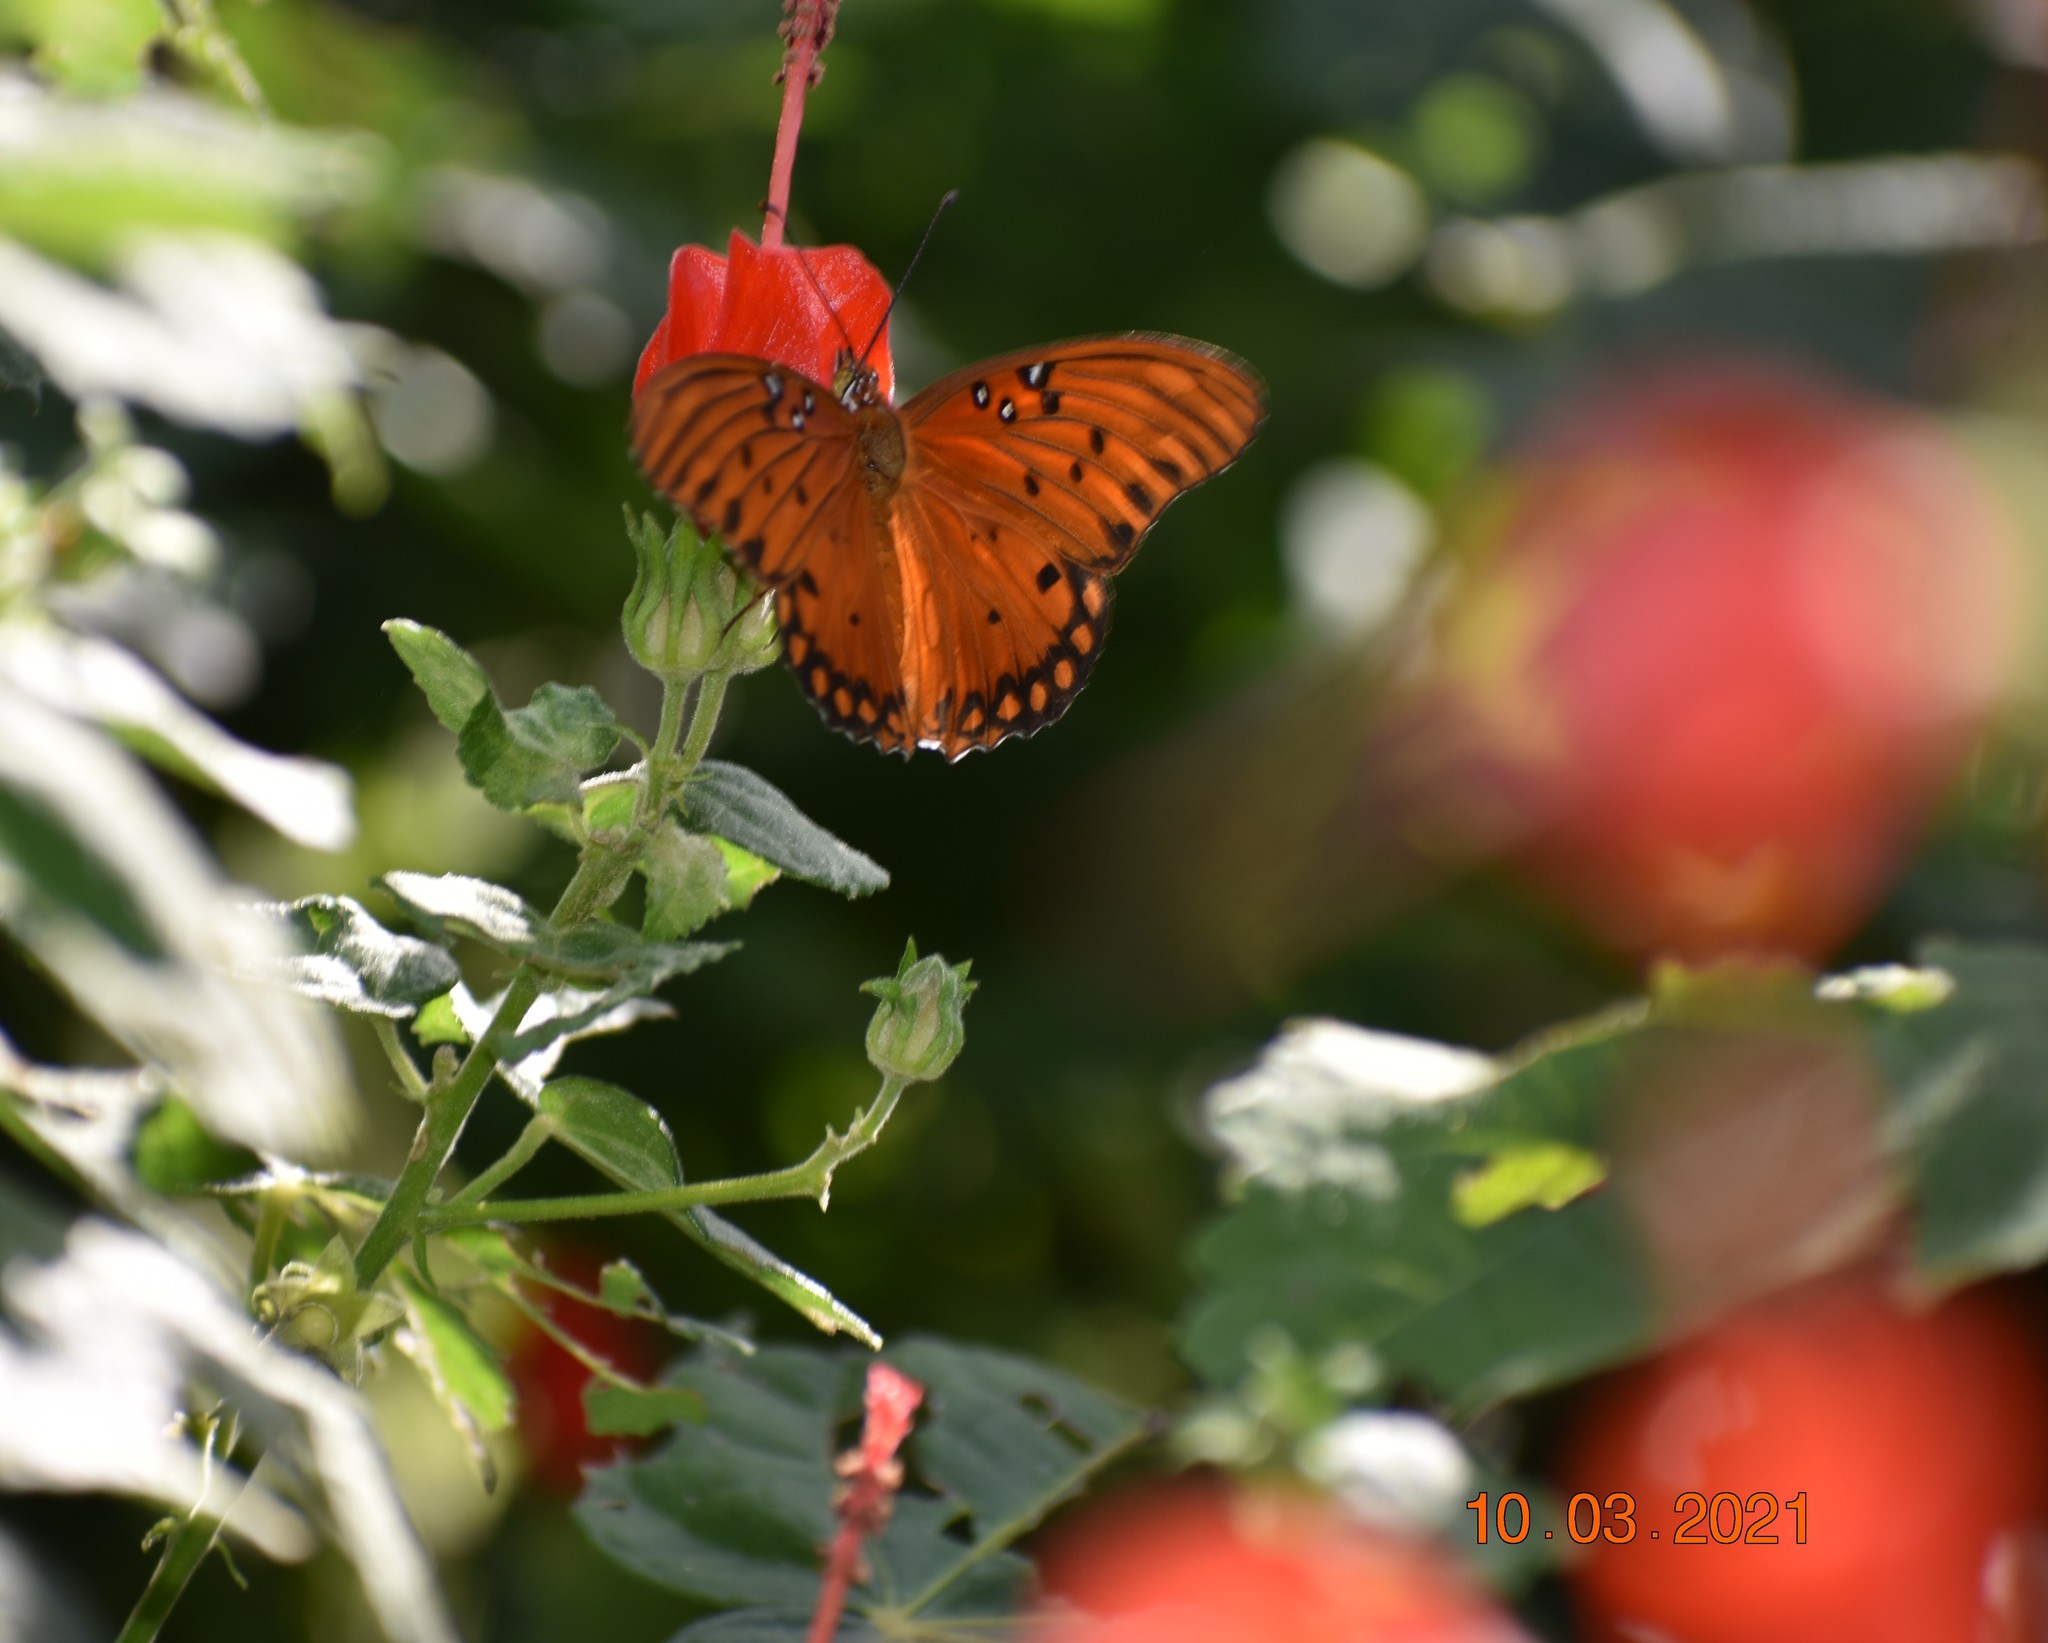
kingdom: Animalia
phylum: Arthropoda
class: Insecta
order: Lepidoptera
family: Nymphalidae
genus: Dione
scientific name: Dione vanillae
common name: Gulf fritillary
